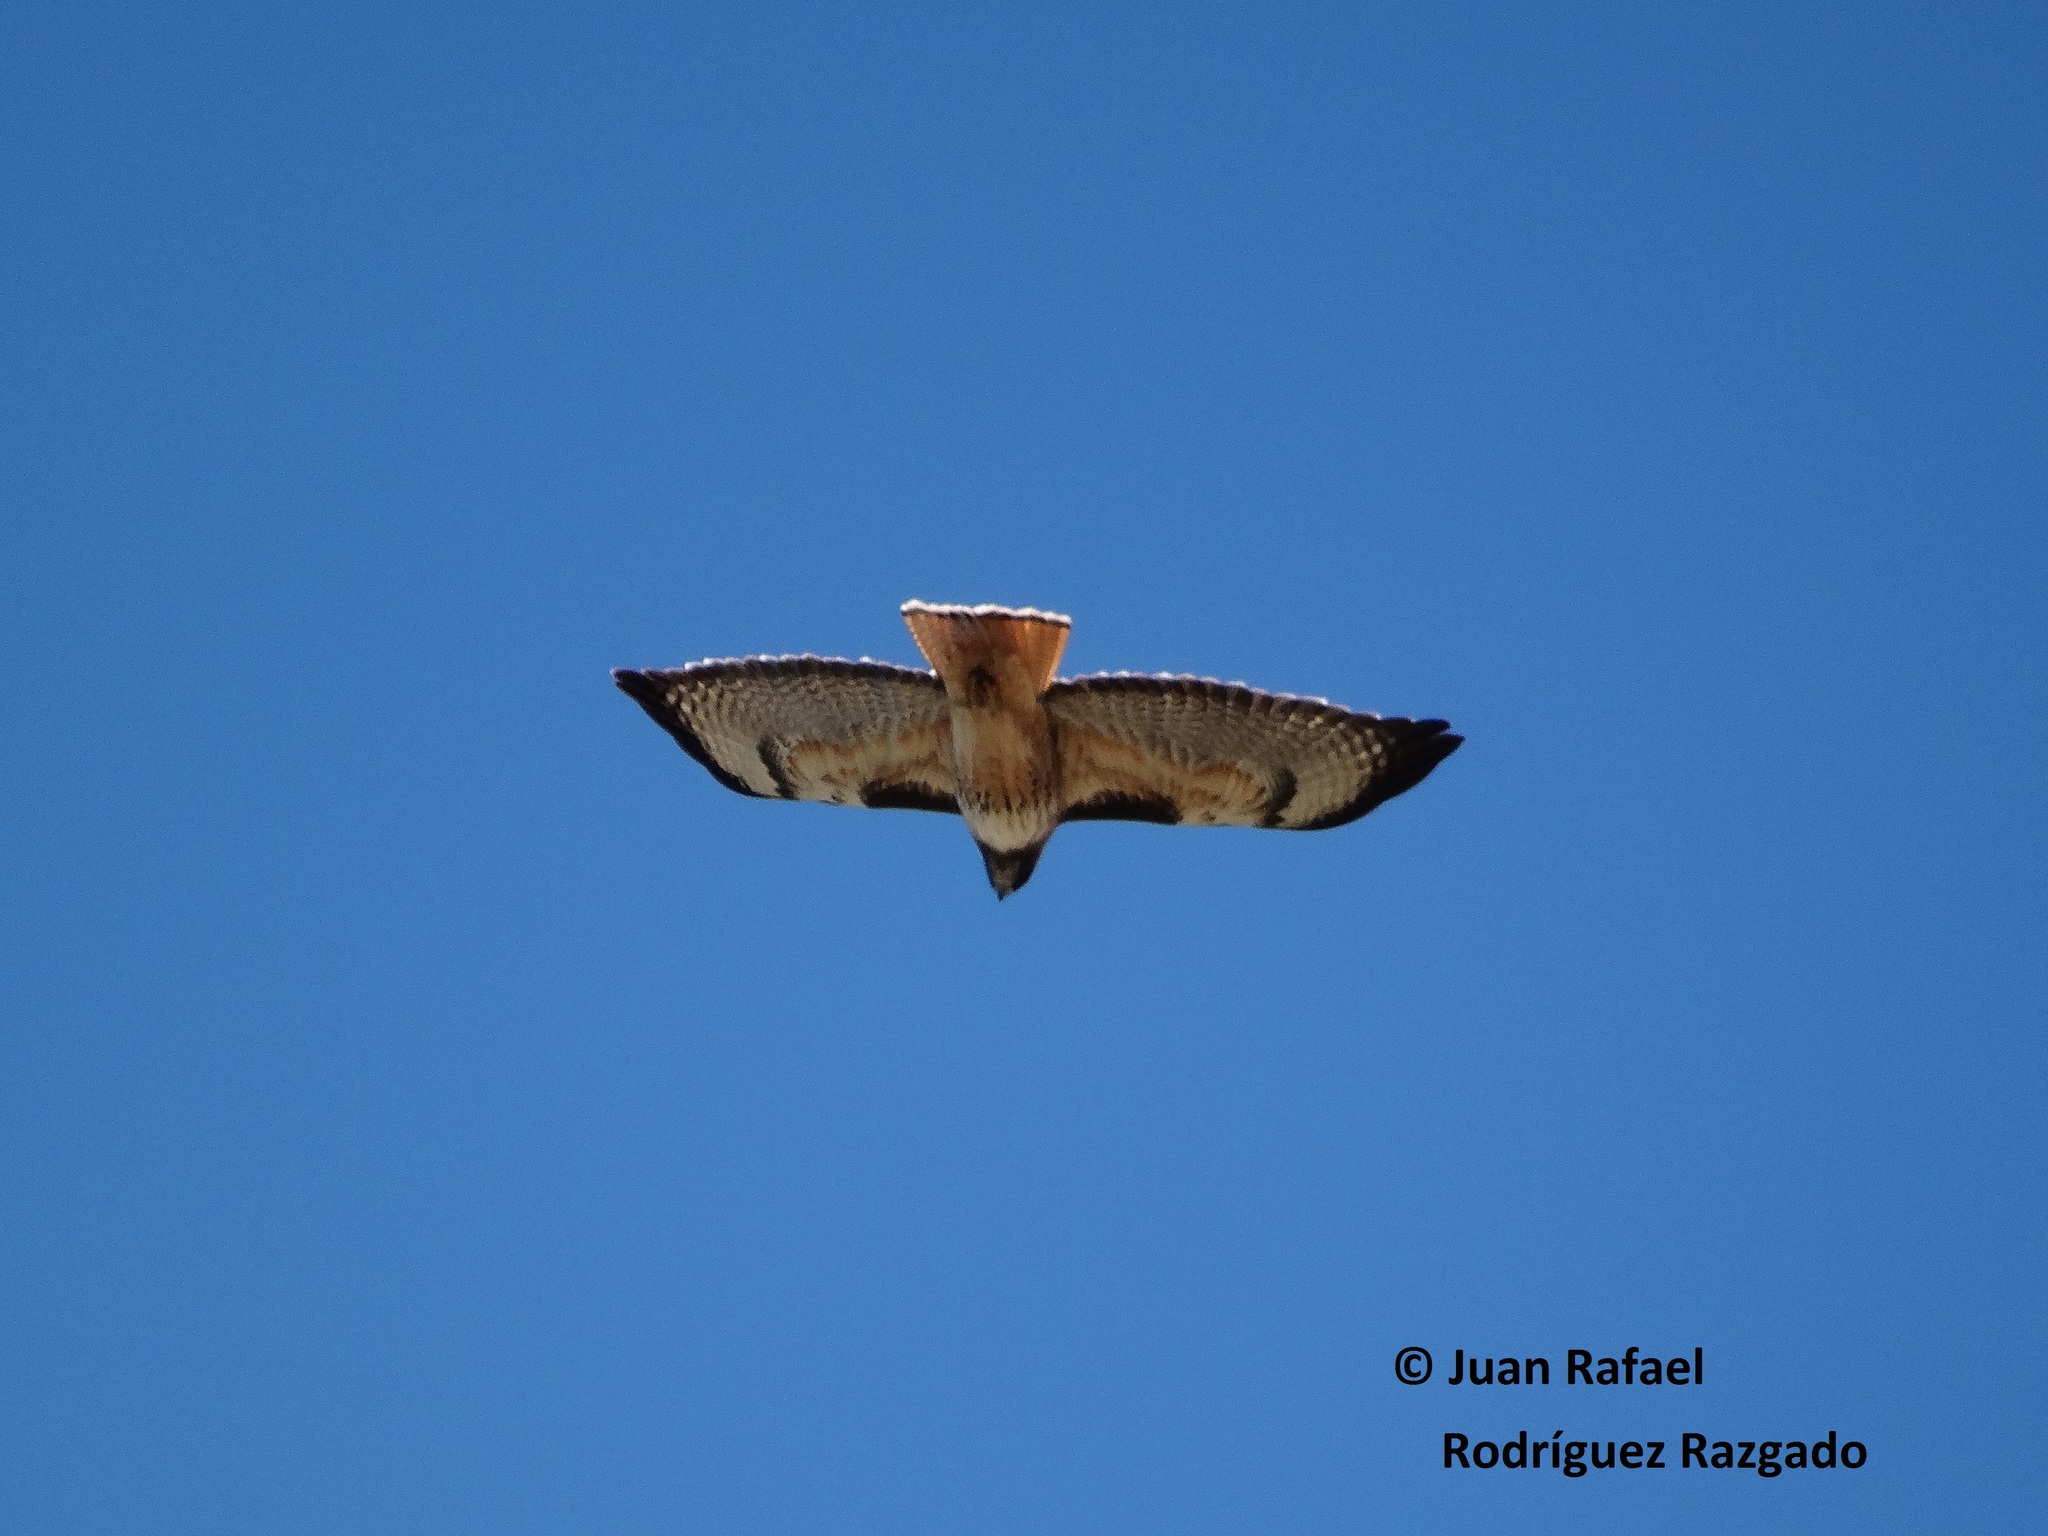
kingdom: Animalia
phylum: Chordata
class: Aves
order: Accipitriformes
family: Accipitridae
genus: Buteo
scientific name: Buteo jamaicensis
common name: Red-tailed hawk
